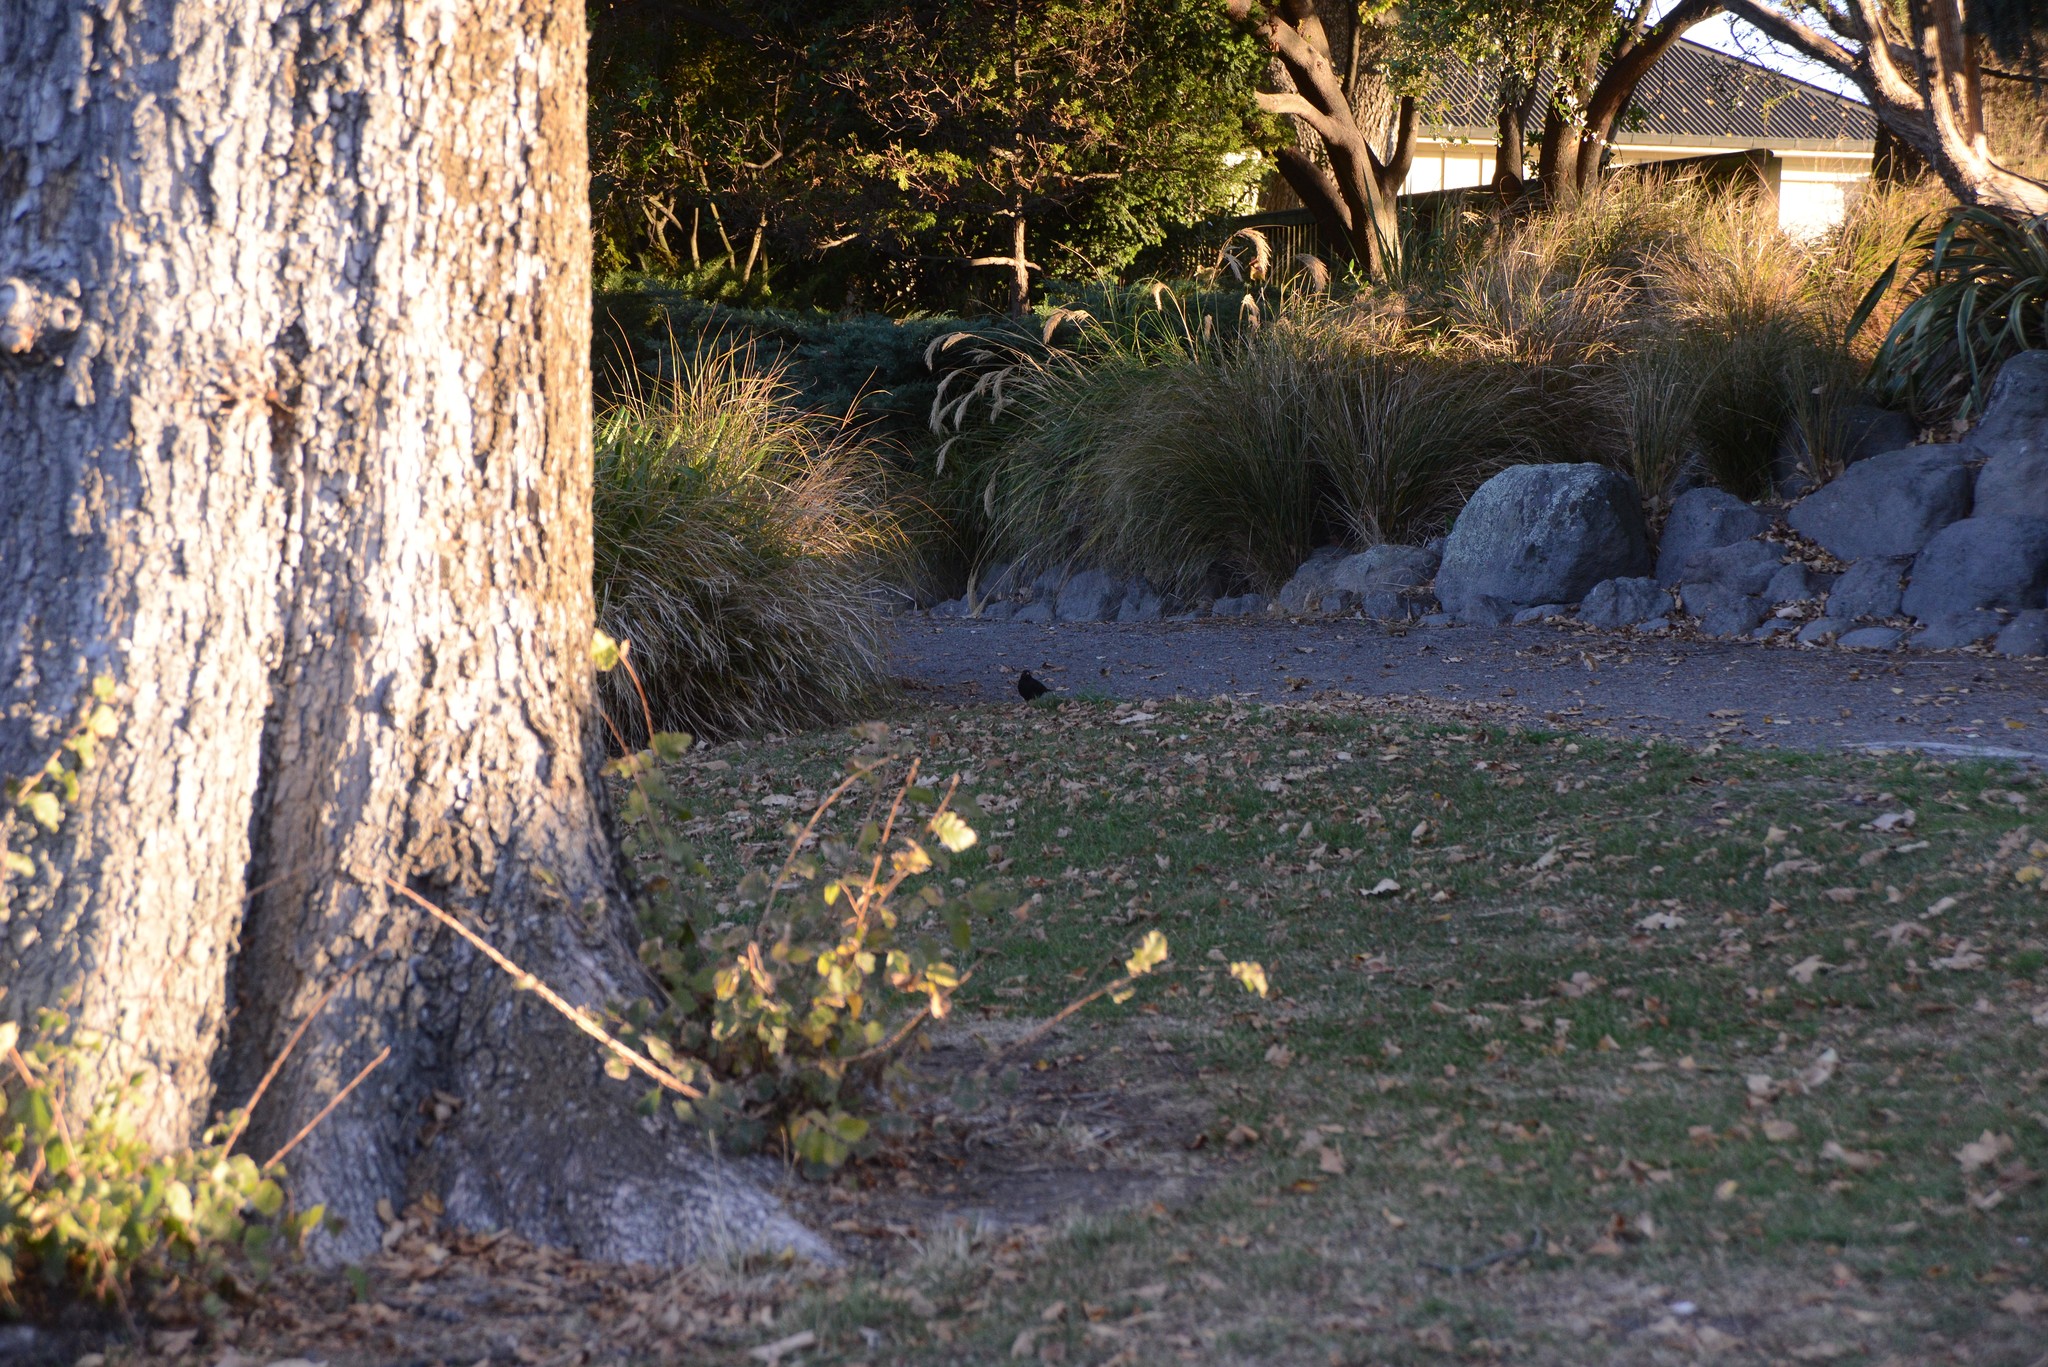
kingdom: Animalia
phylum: Chordata
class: Aves
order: Passeriformes
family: Turdidae
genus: Turdus
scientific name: Turdus merula
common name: Common blackbird
